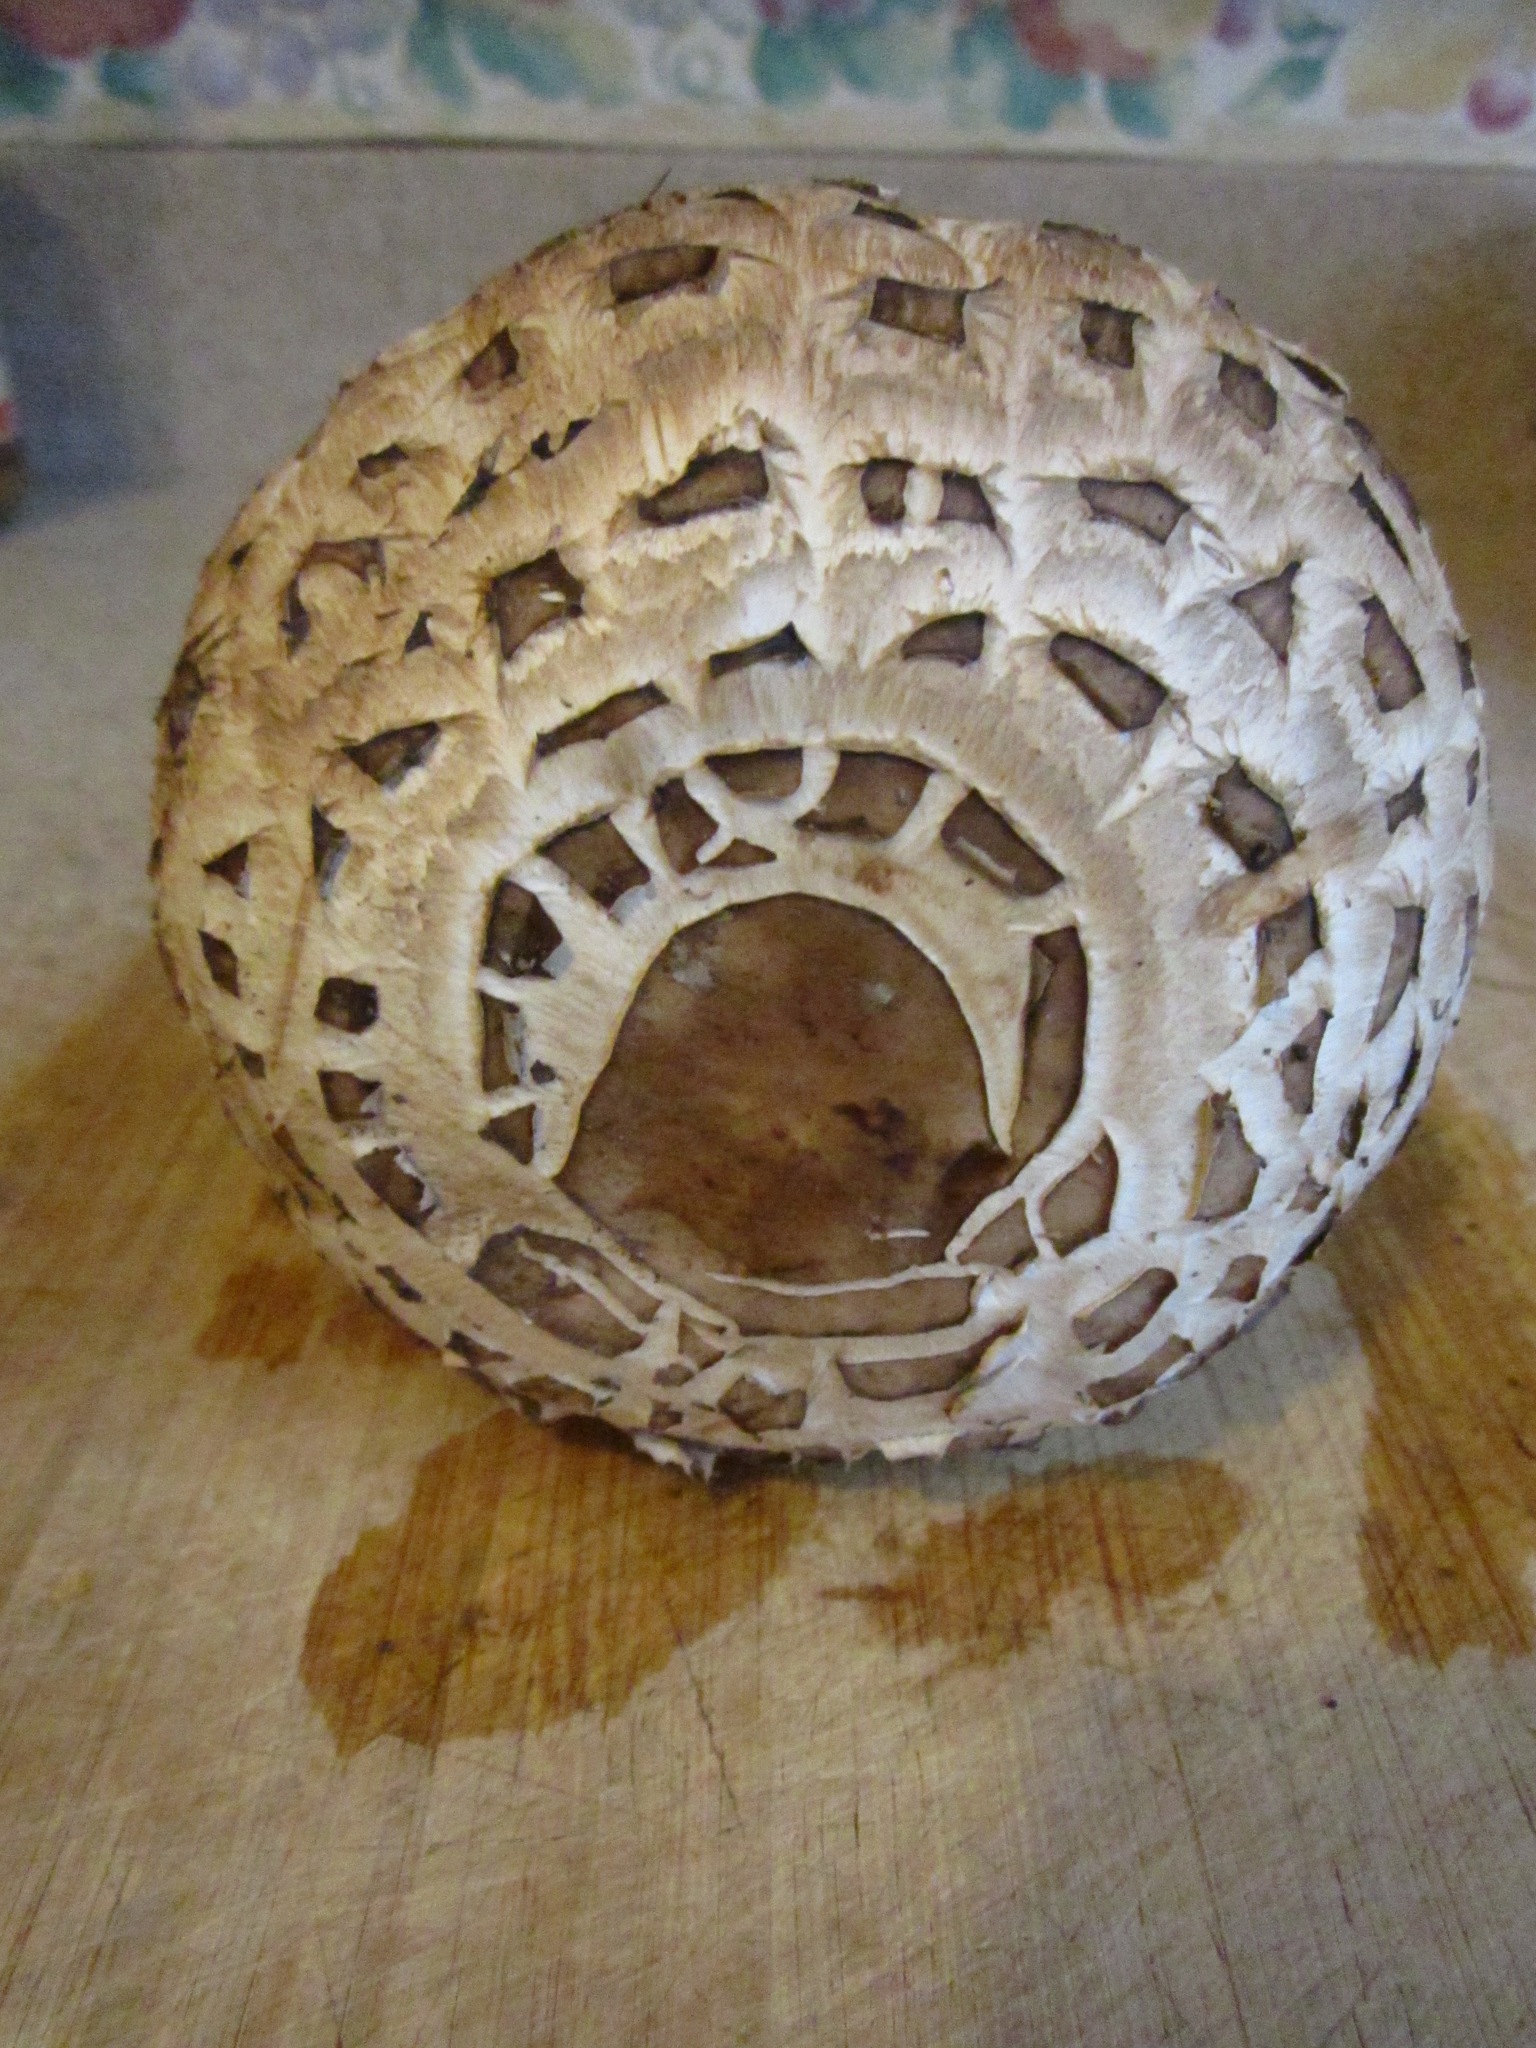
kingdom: Fungi
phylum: Basidiomycota
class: Agaricomycetes
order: Agaricales
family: Agaricaceae
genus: Chlorophyllum
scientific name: Chlorophyllum brunneum
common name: Brown parasol
